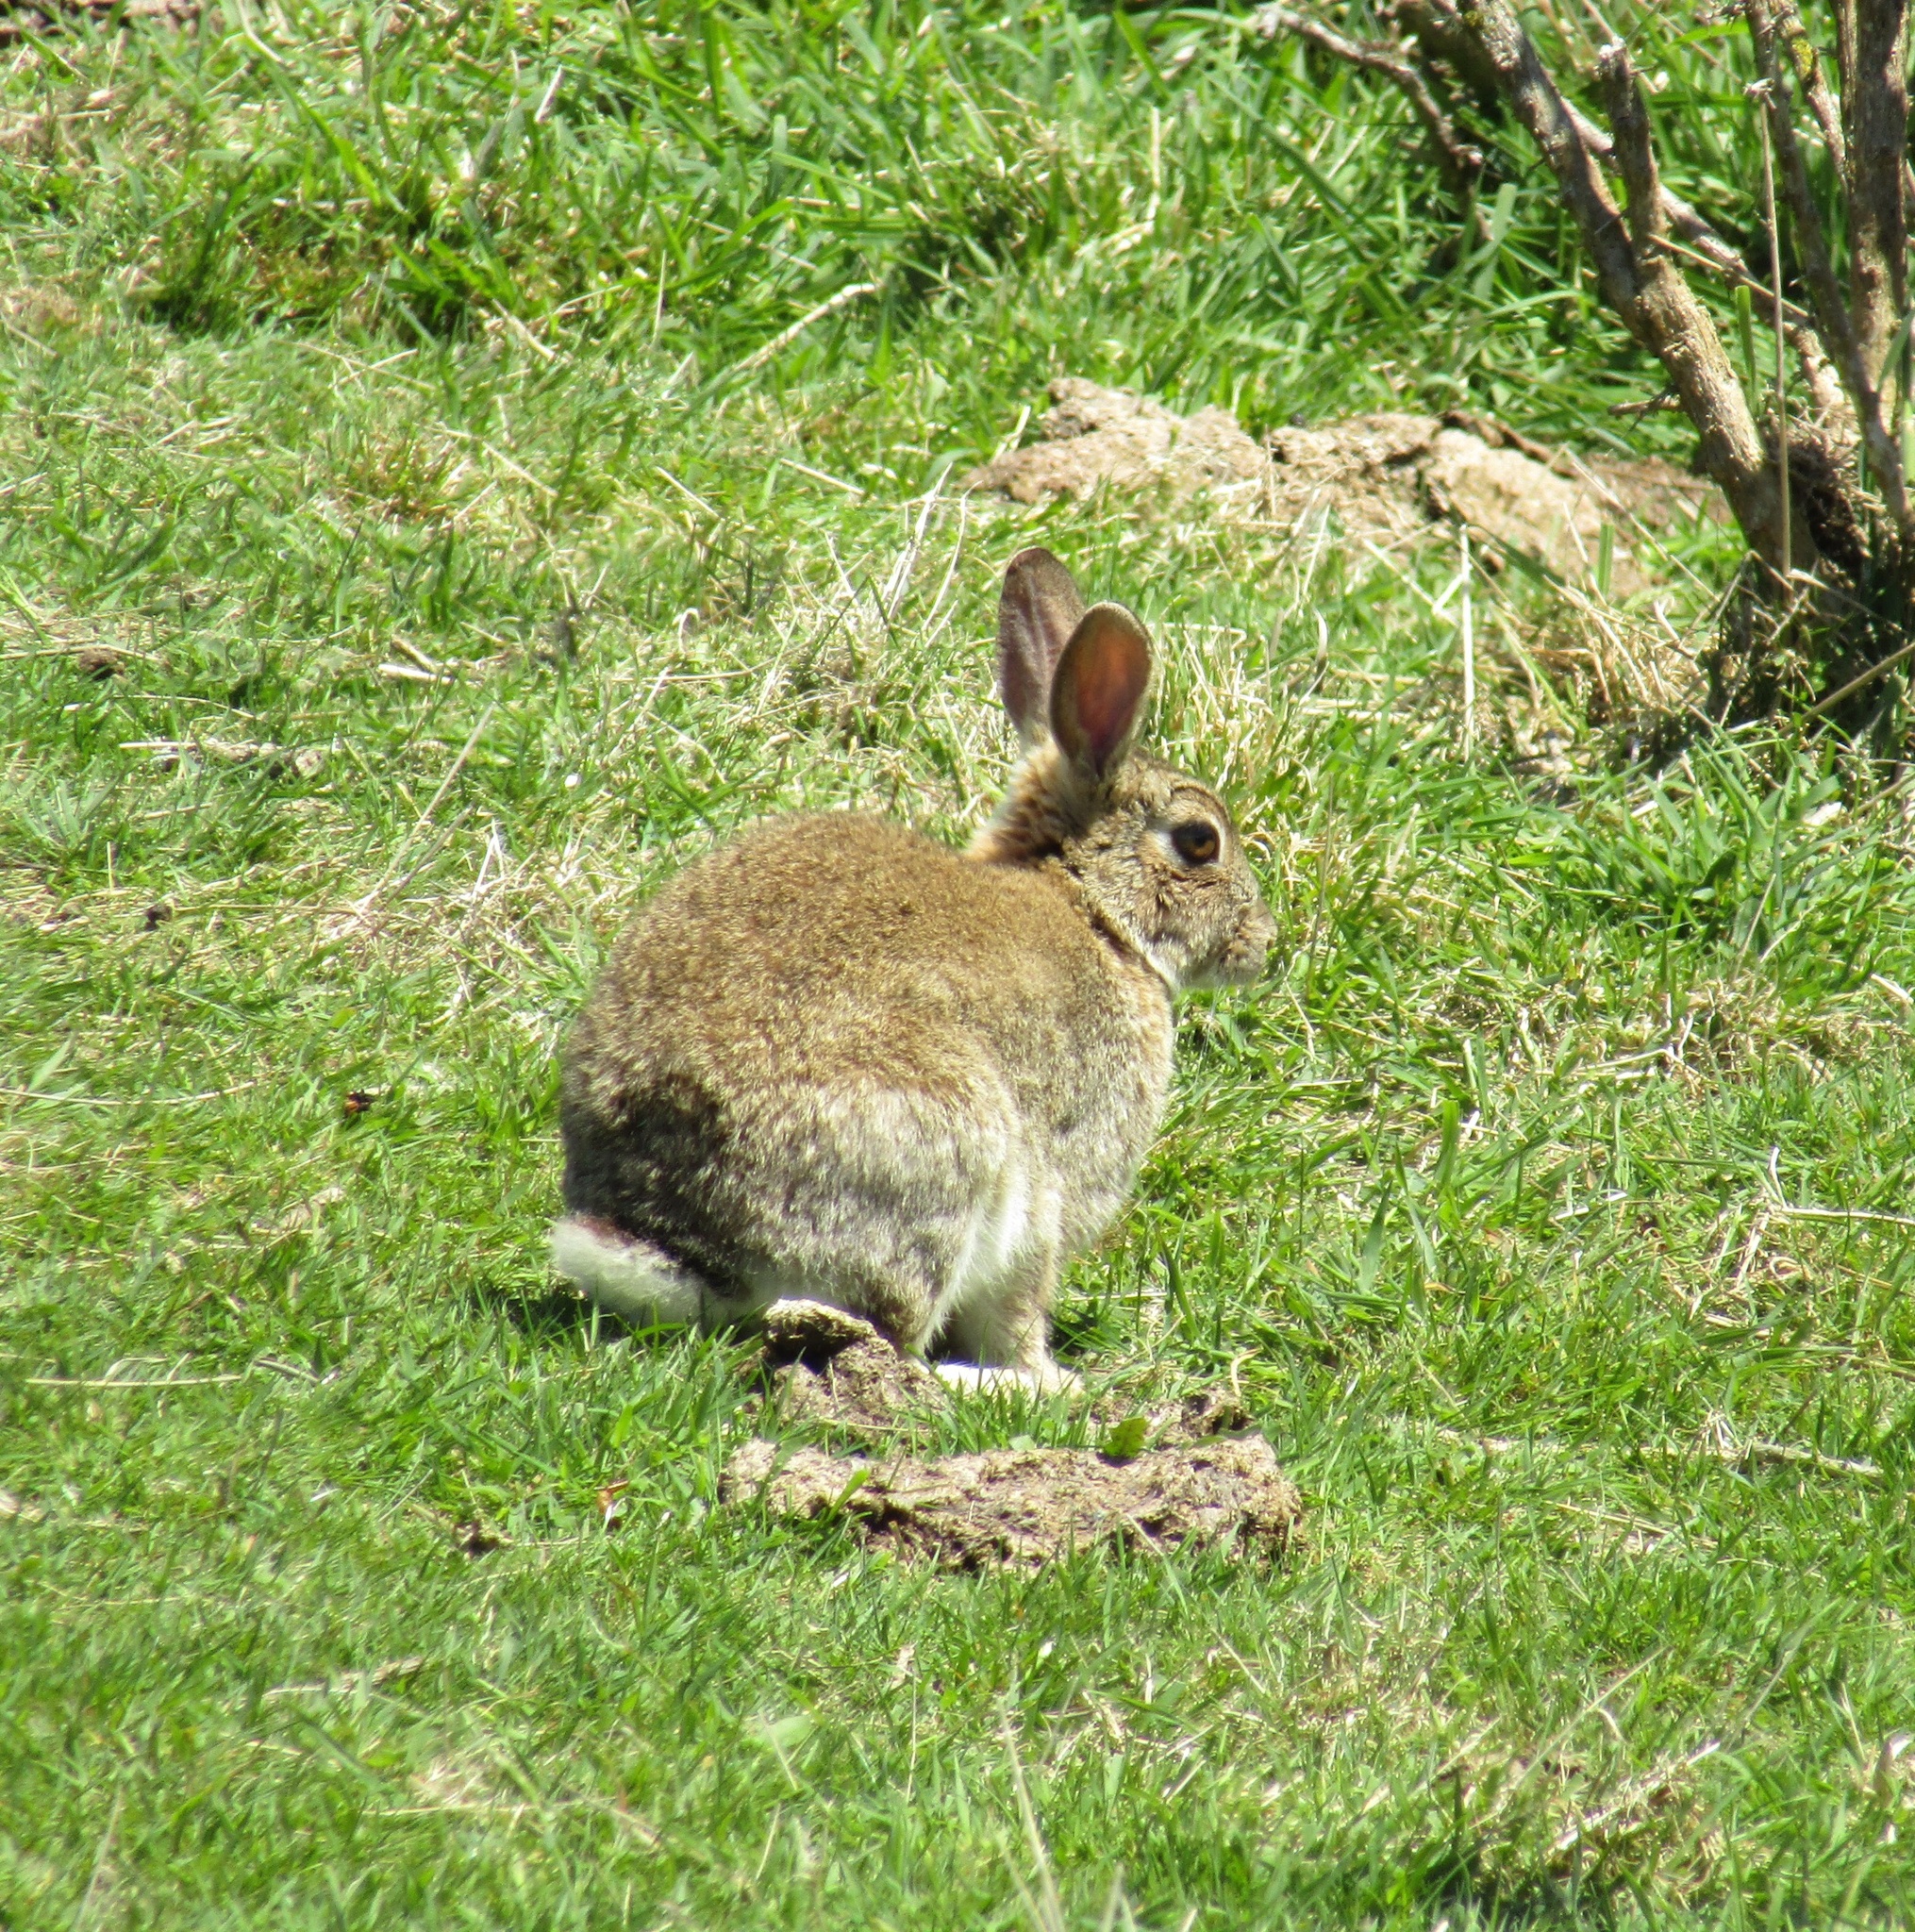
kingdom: Animalia
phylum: Chordata
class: Mammalia
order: Lagomorpha
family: Leporidae
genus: Oryctolagus
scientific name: Oryctolagus cuniculus
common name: European rabbit
